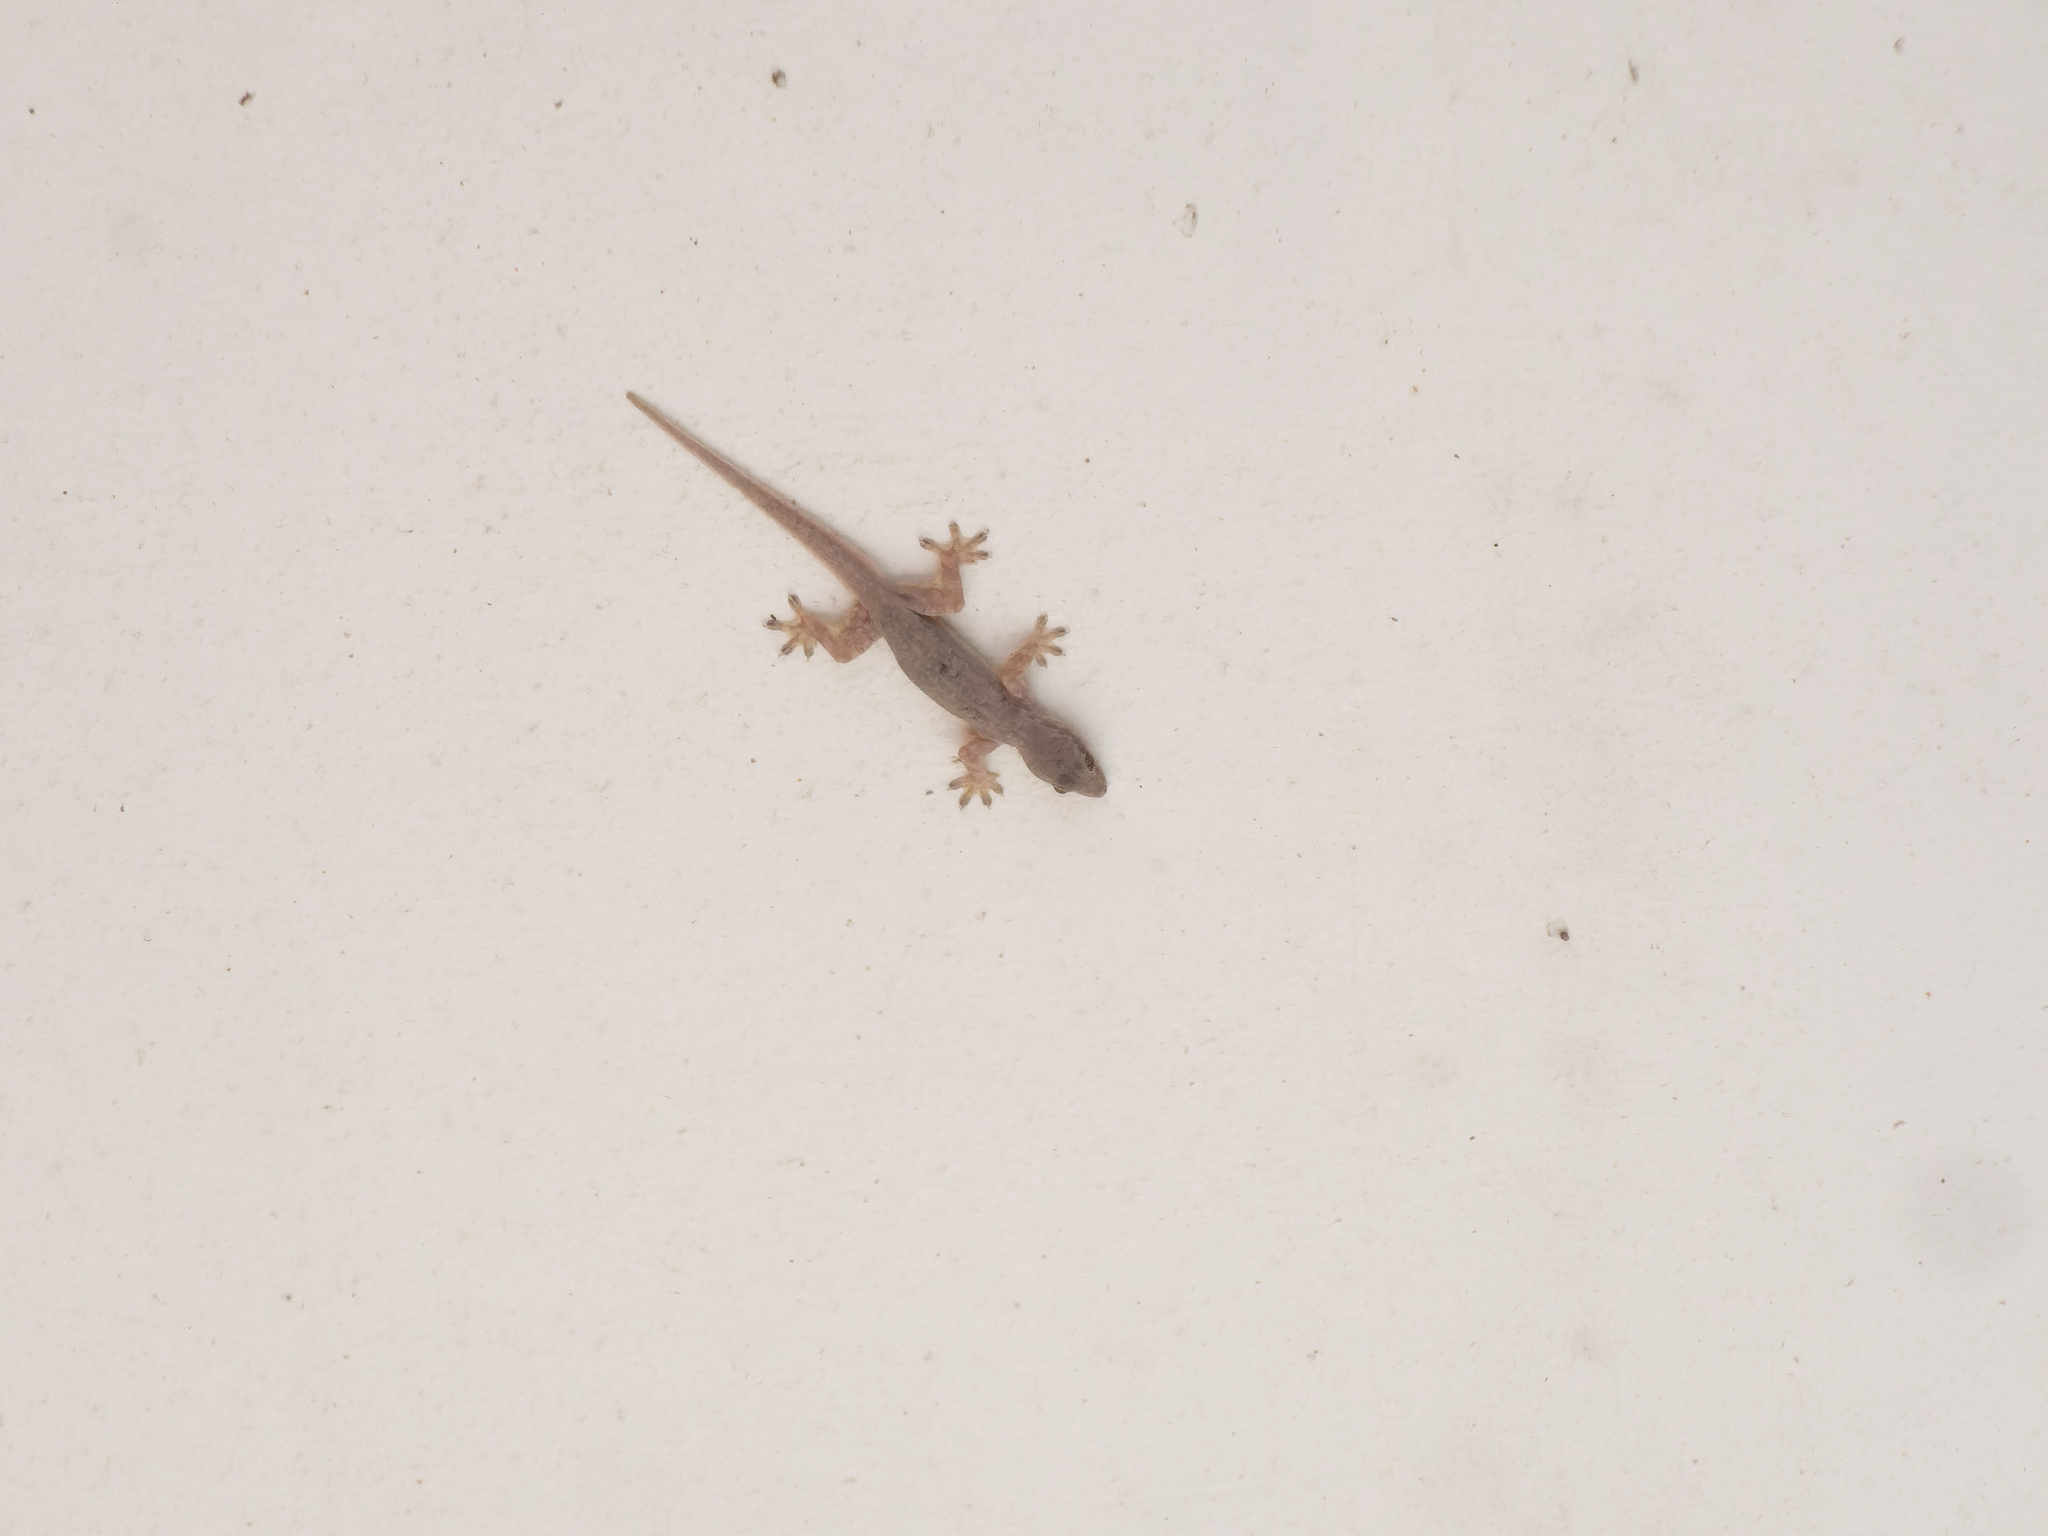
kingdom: Animalia
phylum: Chordata
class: Squamata
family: Gekkonidae
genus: Hemidactylus
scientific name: Hemidactylus platyurus
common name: Flat-tailed house gecko
